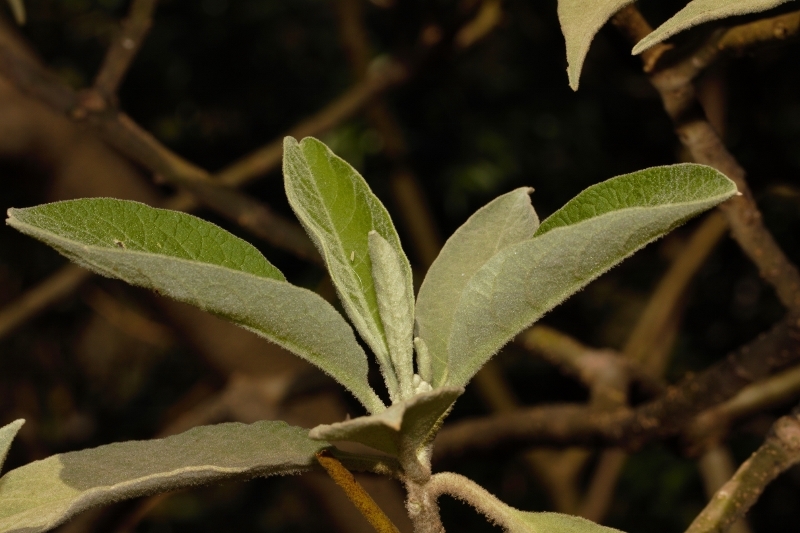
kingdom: Plantae
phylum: Tracheophyta
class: Magnoliopsida
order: Solanales
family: Solanaceae
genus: Solanum
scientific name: Solanum mauritianum
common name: Earleaf nightshade
